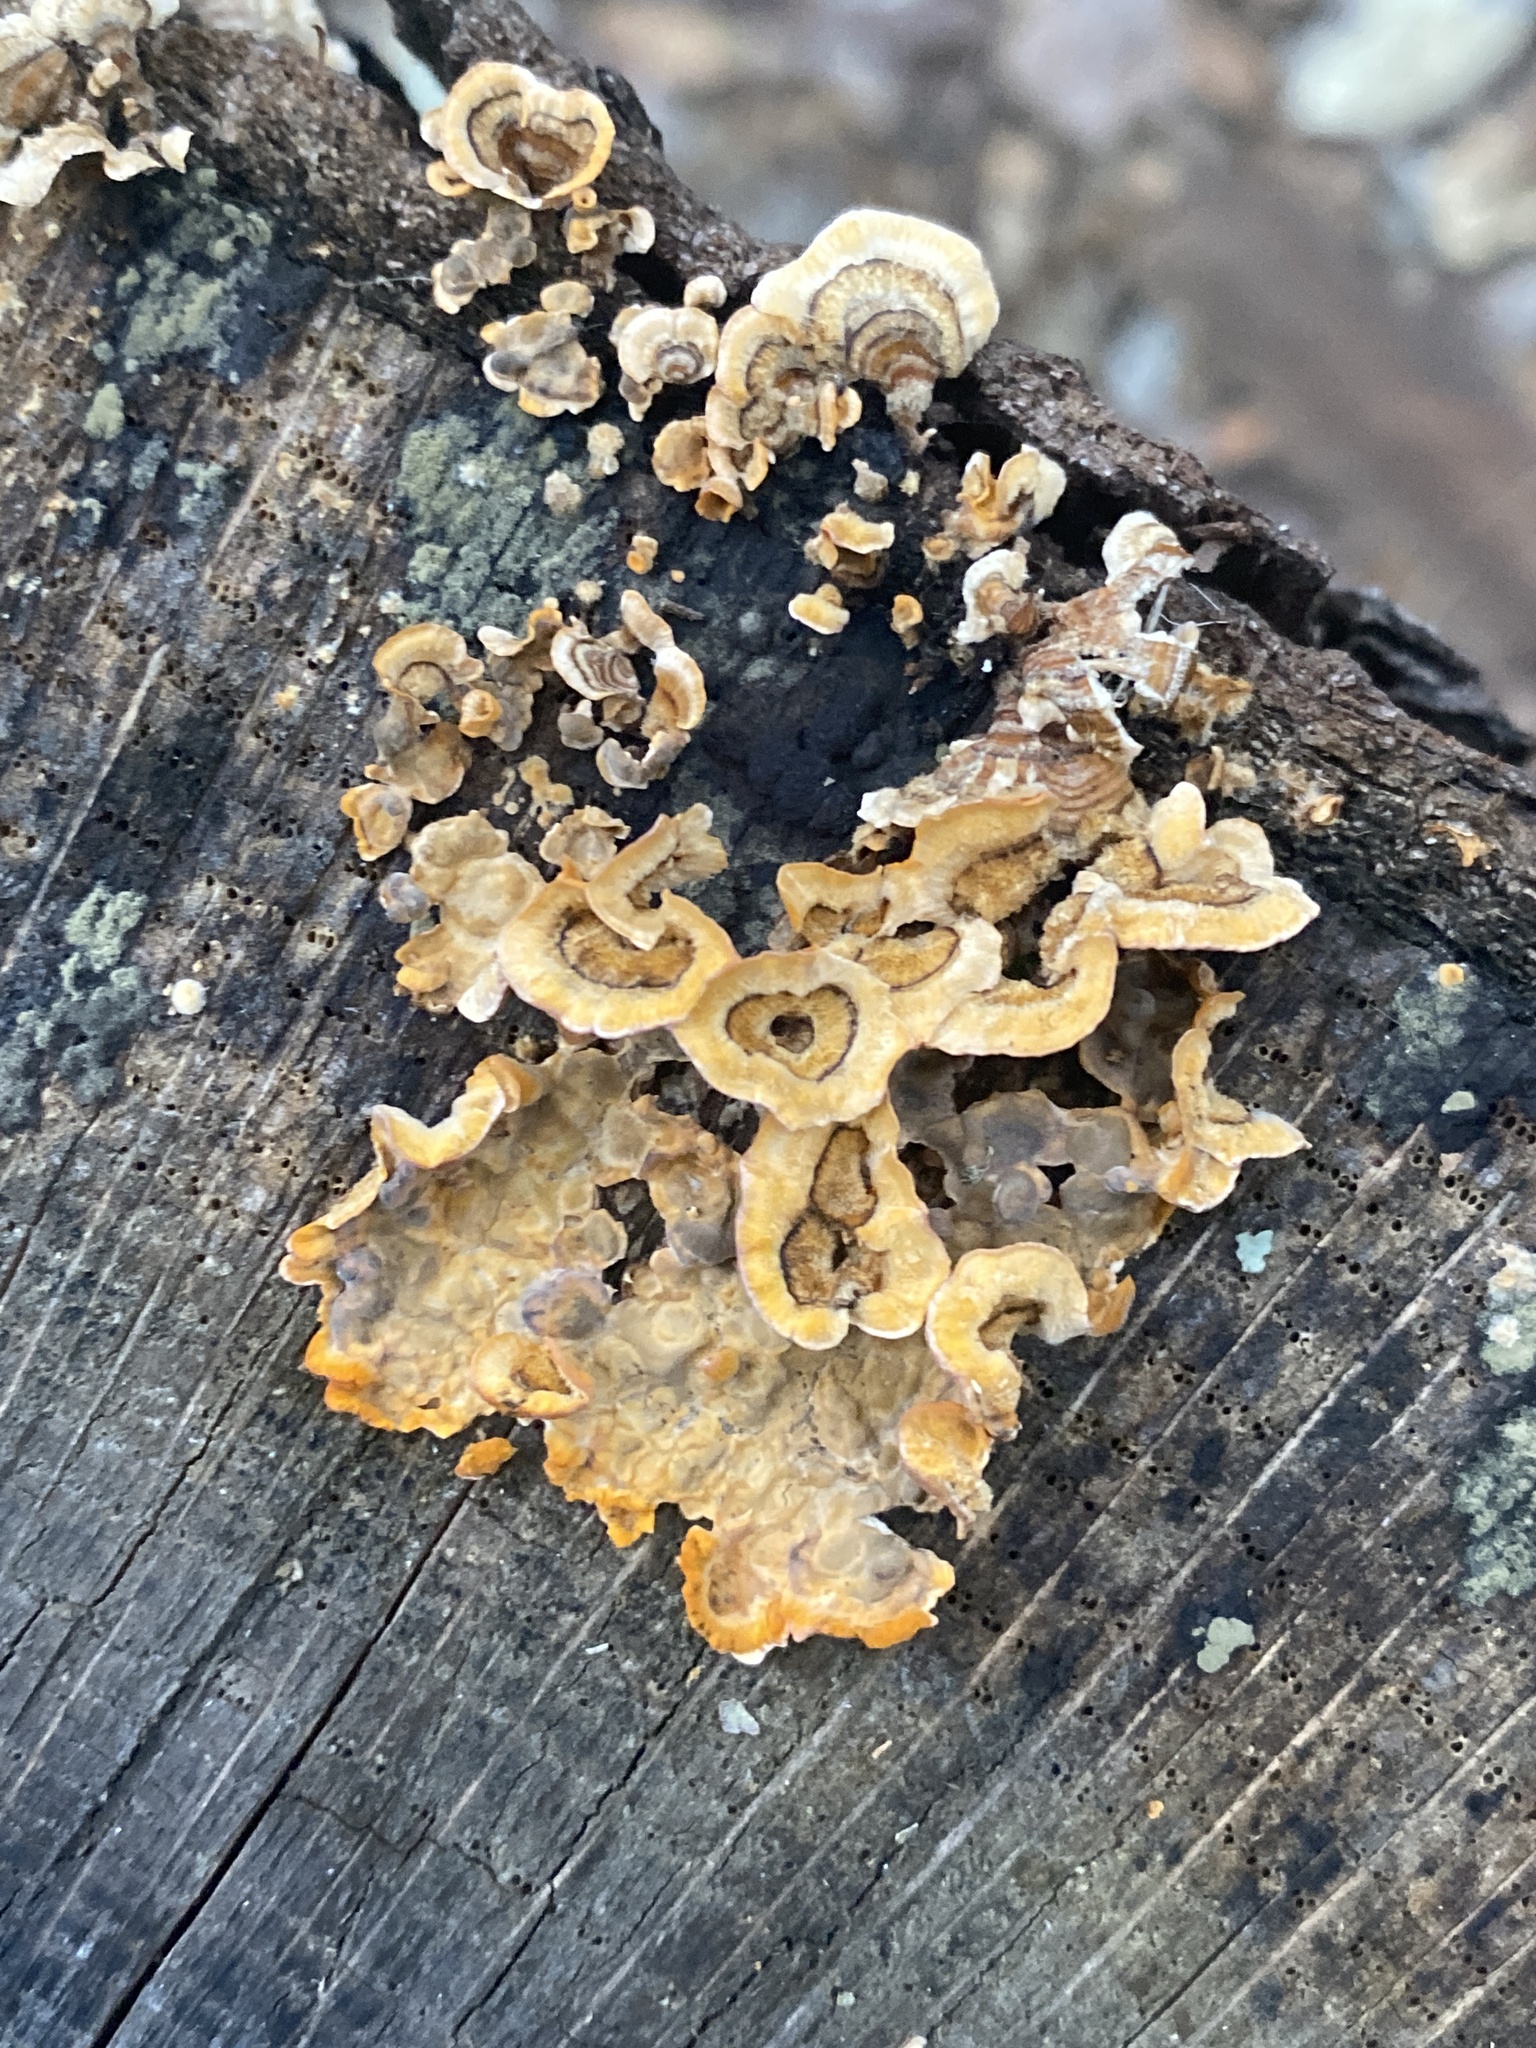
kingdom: Fungi
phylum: Basidiomycota
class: Agaricomycetes
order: Russulales
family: Stereaceae
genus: Stereum
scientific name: Stereum complicatum
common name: Crowded parchment
